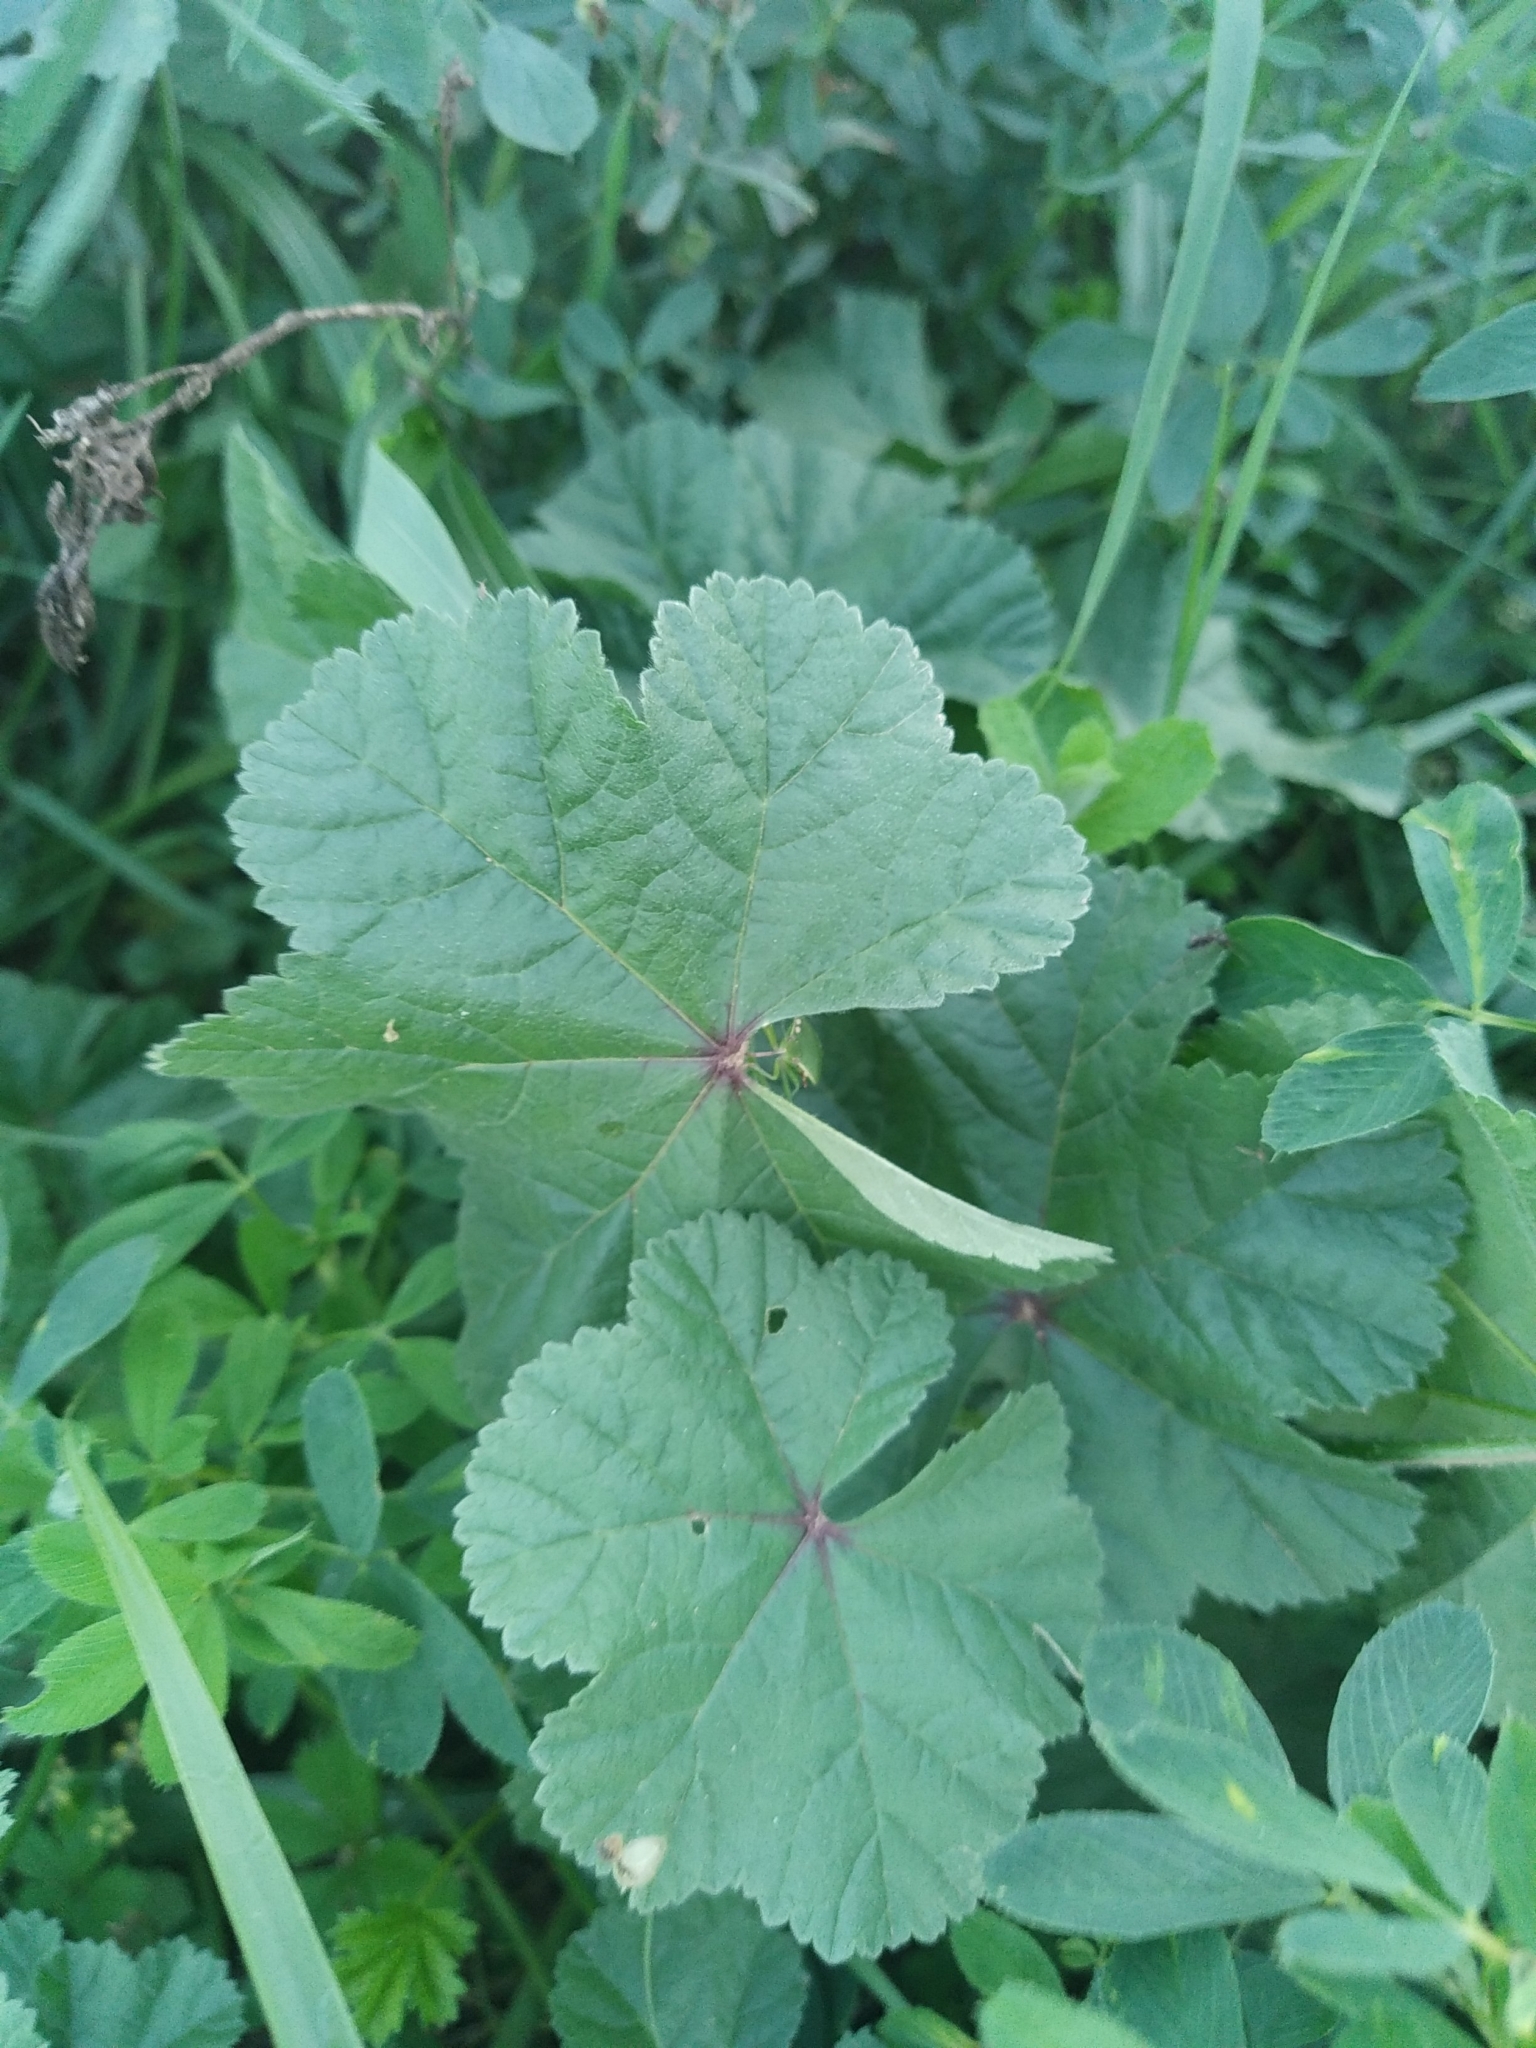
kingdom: Plantae
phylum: Tracheophyta
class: Magnoliopsida
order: Malvales
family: Malvaceae
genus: Malva
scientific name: Malva sylvestris
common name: Common mallow
